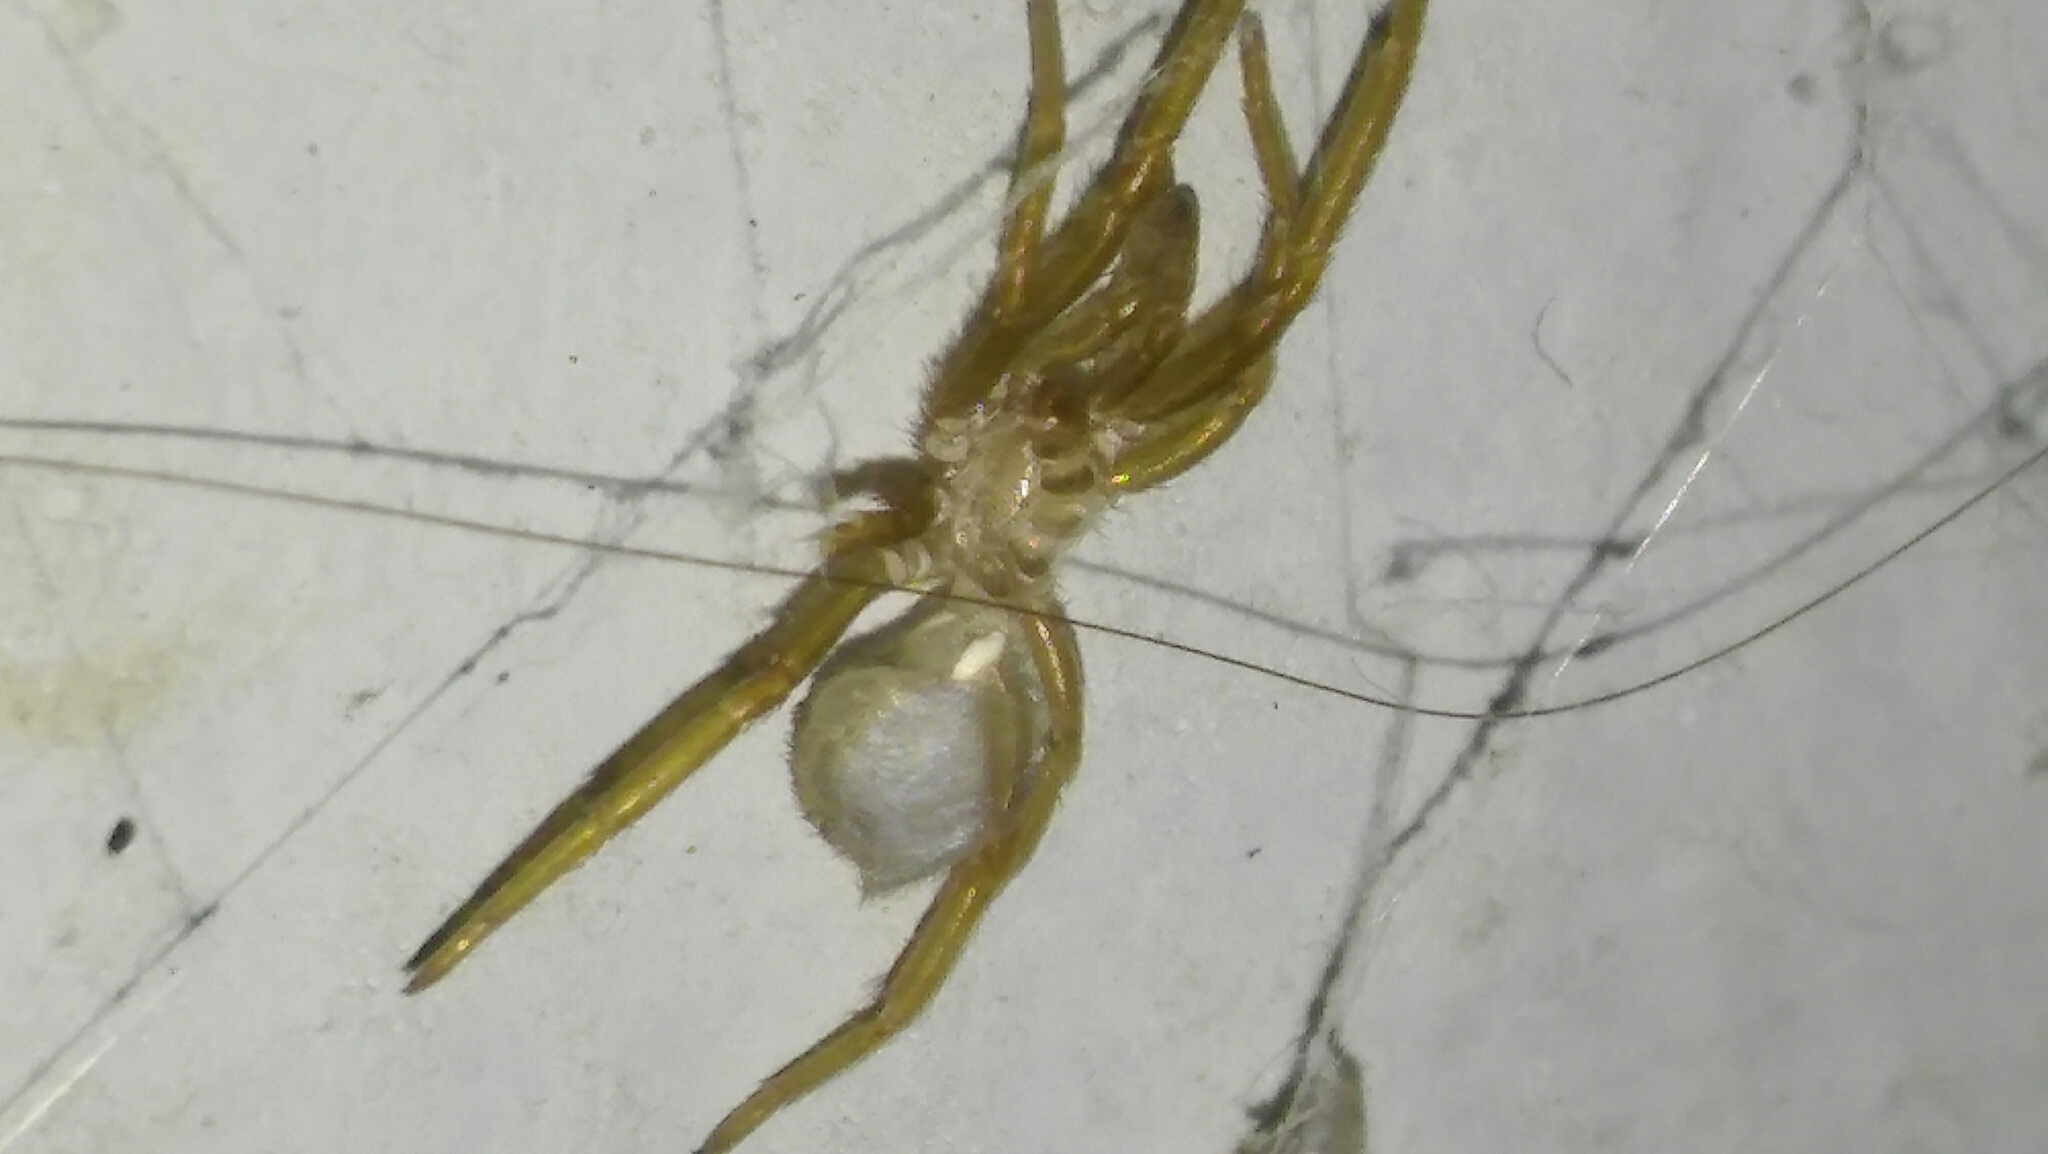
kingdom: Animalia
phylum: Arthropoda
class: Arachnida
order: Araneae
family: Filistatidae
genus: Kukulcania
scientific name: Kukulcania hibernalis
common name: Crevice weaver
